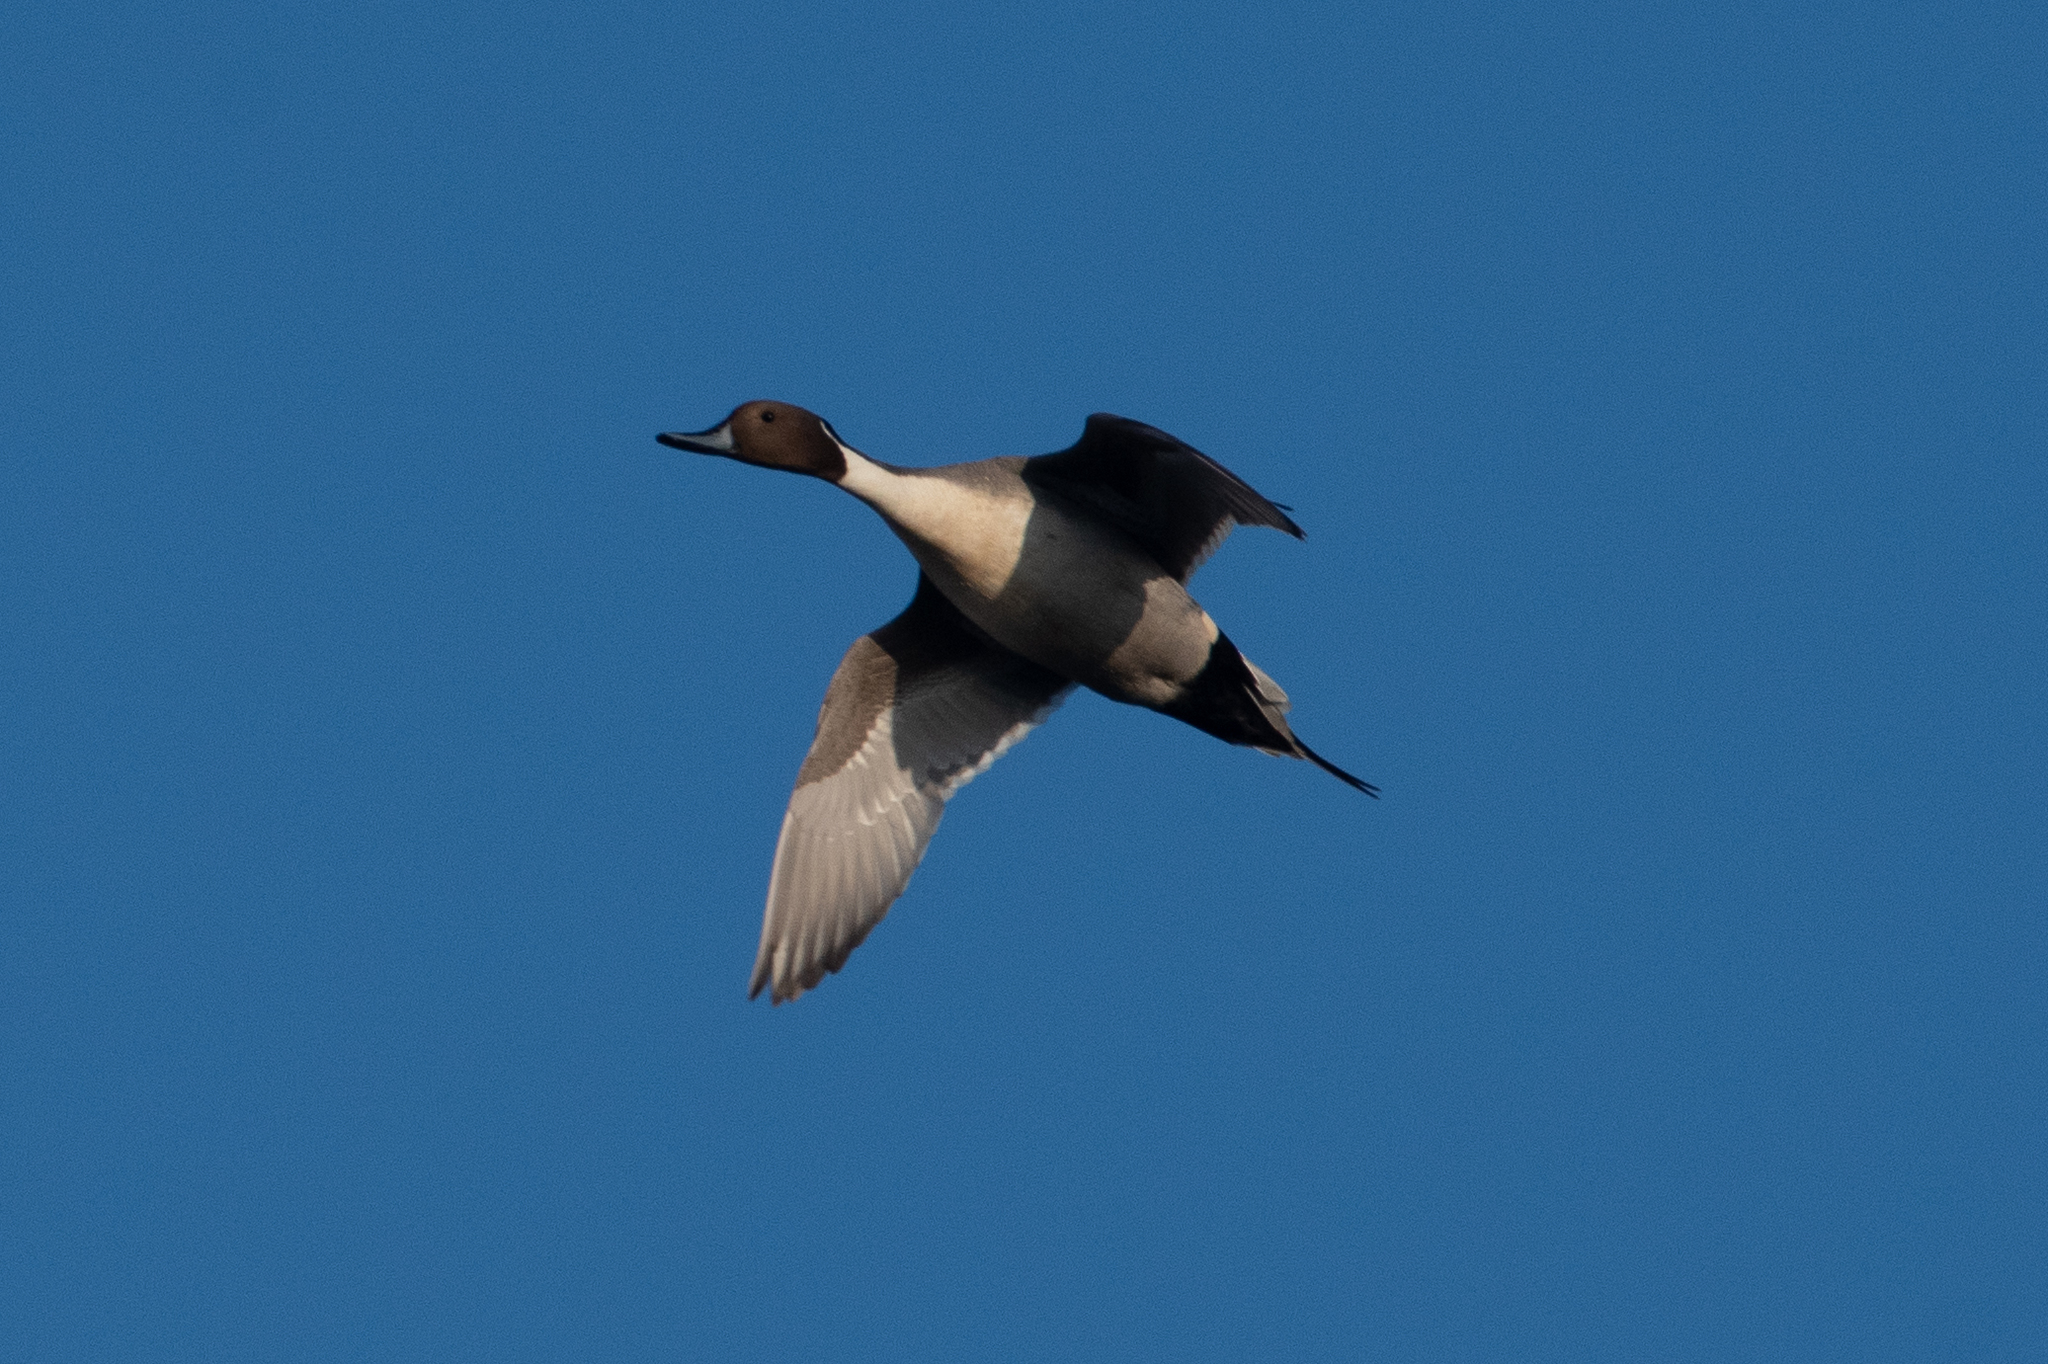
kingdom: Animalia
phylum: Chordata
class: Aves
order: Anseriformes
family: Anatidae
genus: Anas
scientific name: Anas acuta
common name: Northern pintail
